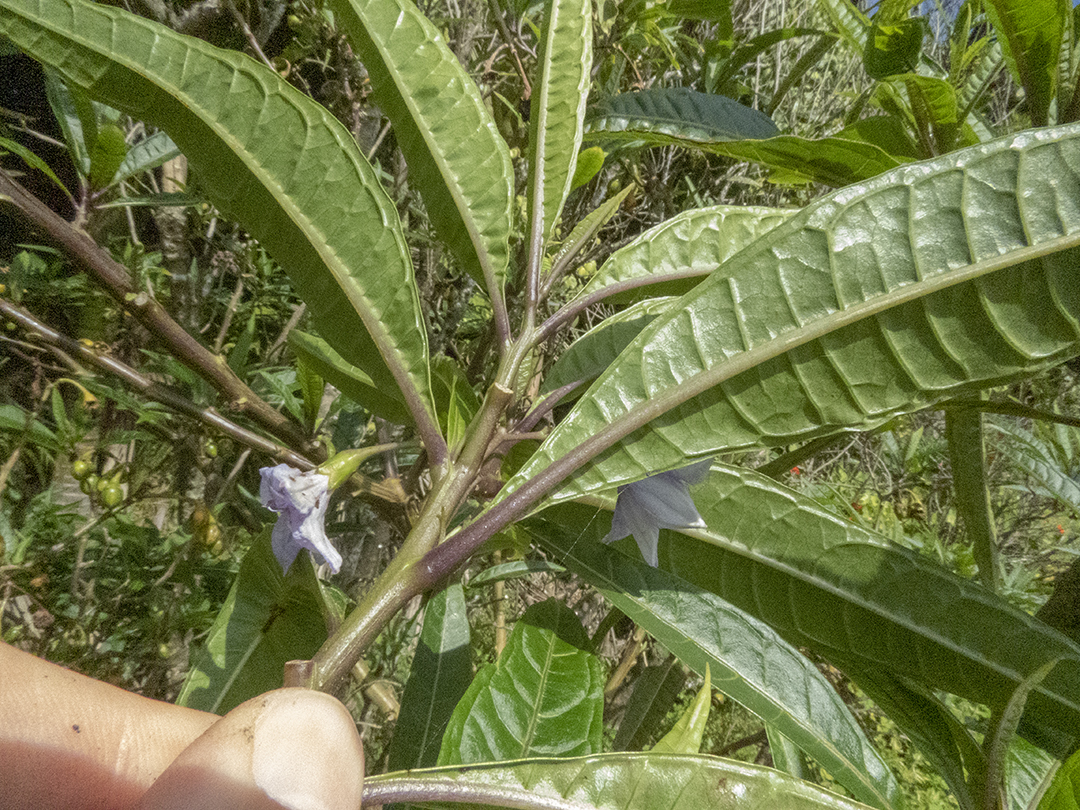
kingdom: Plantae
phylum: Tracheophyta
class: Magnoliopsida
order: Solanales
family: Solanaceae
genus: Solanum
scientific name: Solanum aviculare
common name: New zealand nightshade
